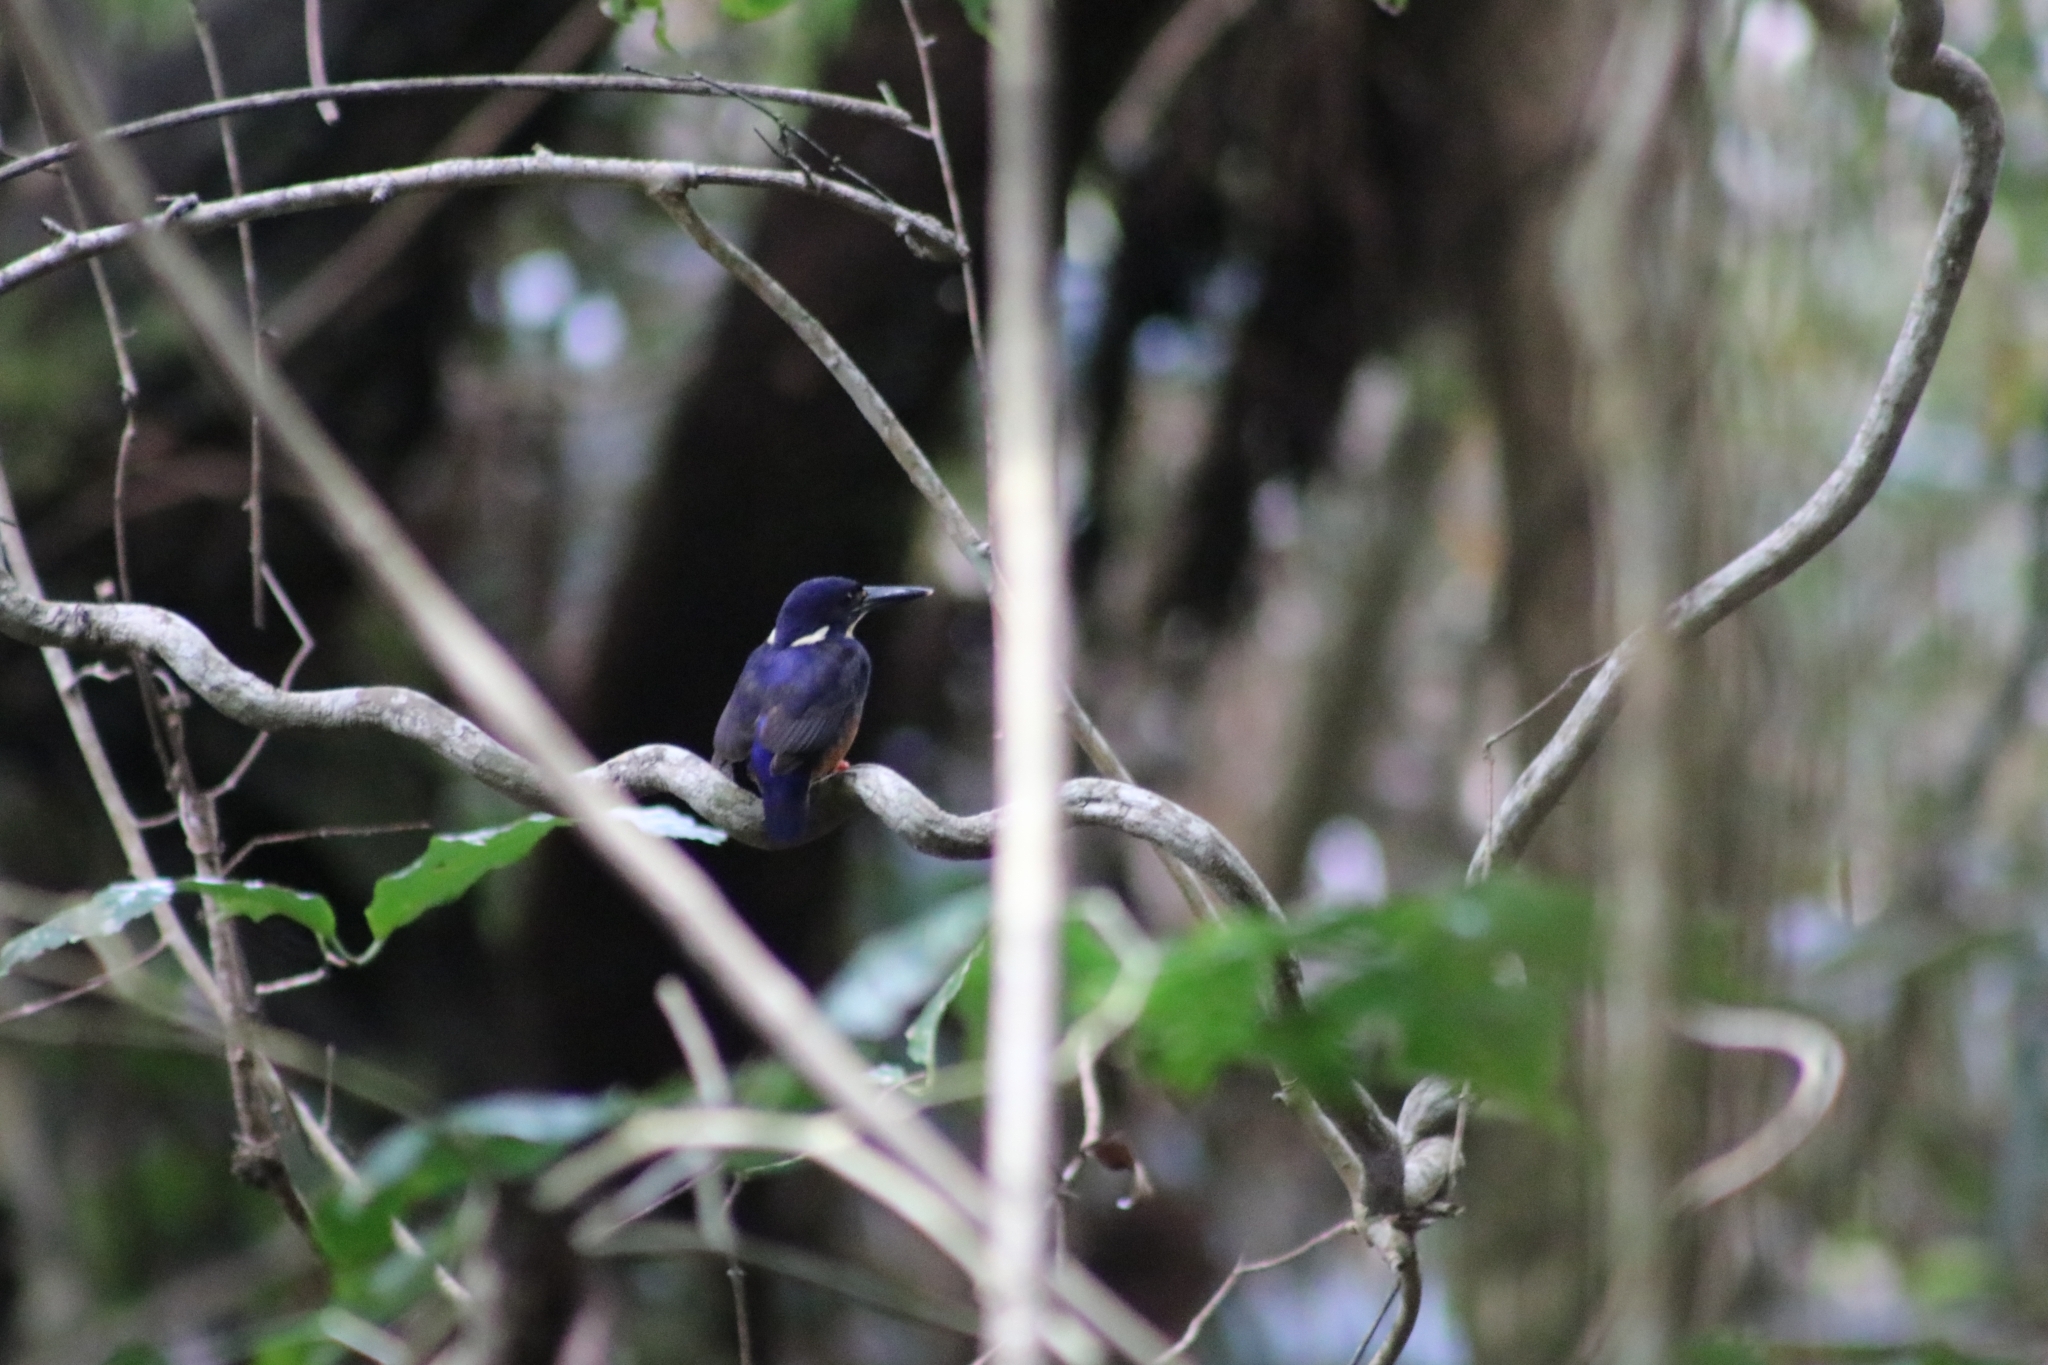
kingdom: Animalia
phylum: Chordata
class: Aves
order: Coraciiformes
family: Alcedinidae
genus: Ceyx
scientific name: Ceyx azureus
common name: Azure kingfisher
